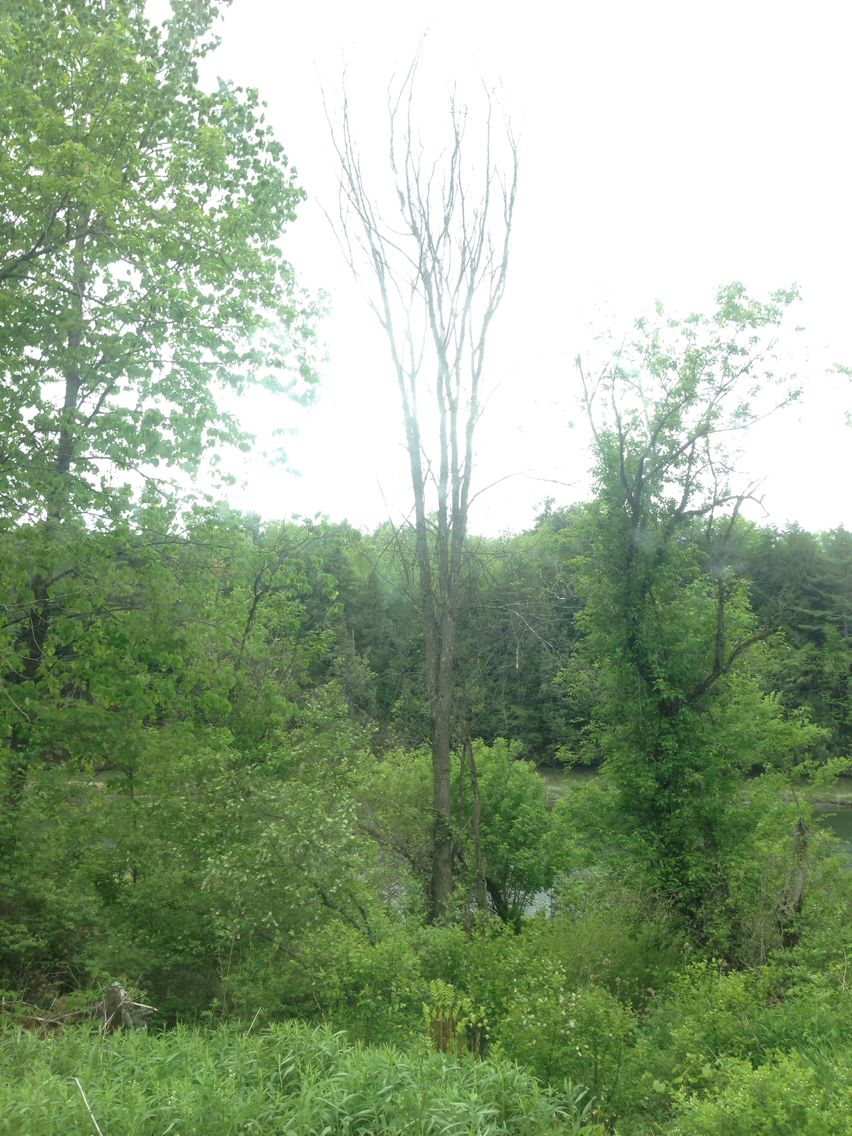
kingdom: Plantae
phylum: Tracheophyta
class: Magnoliopsida
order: Rosales
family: Ulmaceae
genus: Ulmus
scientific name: Ulmus americana
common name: American elm
